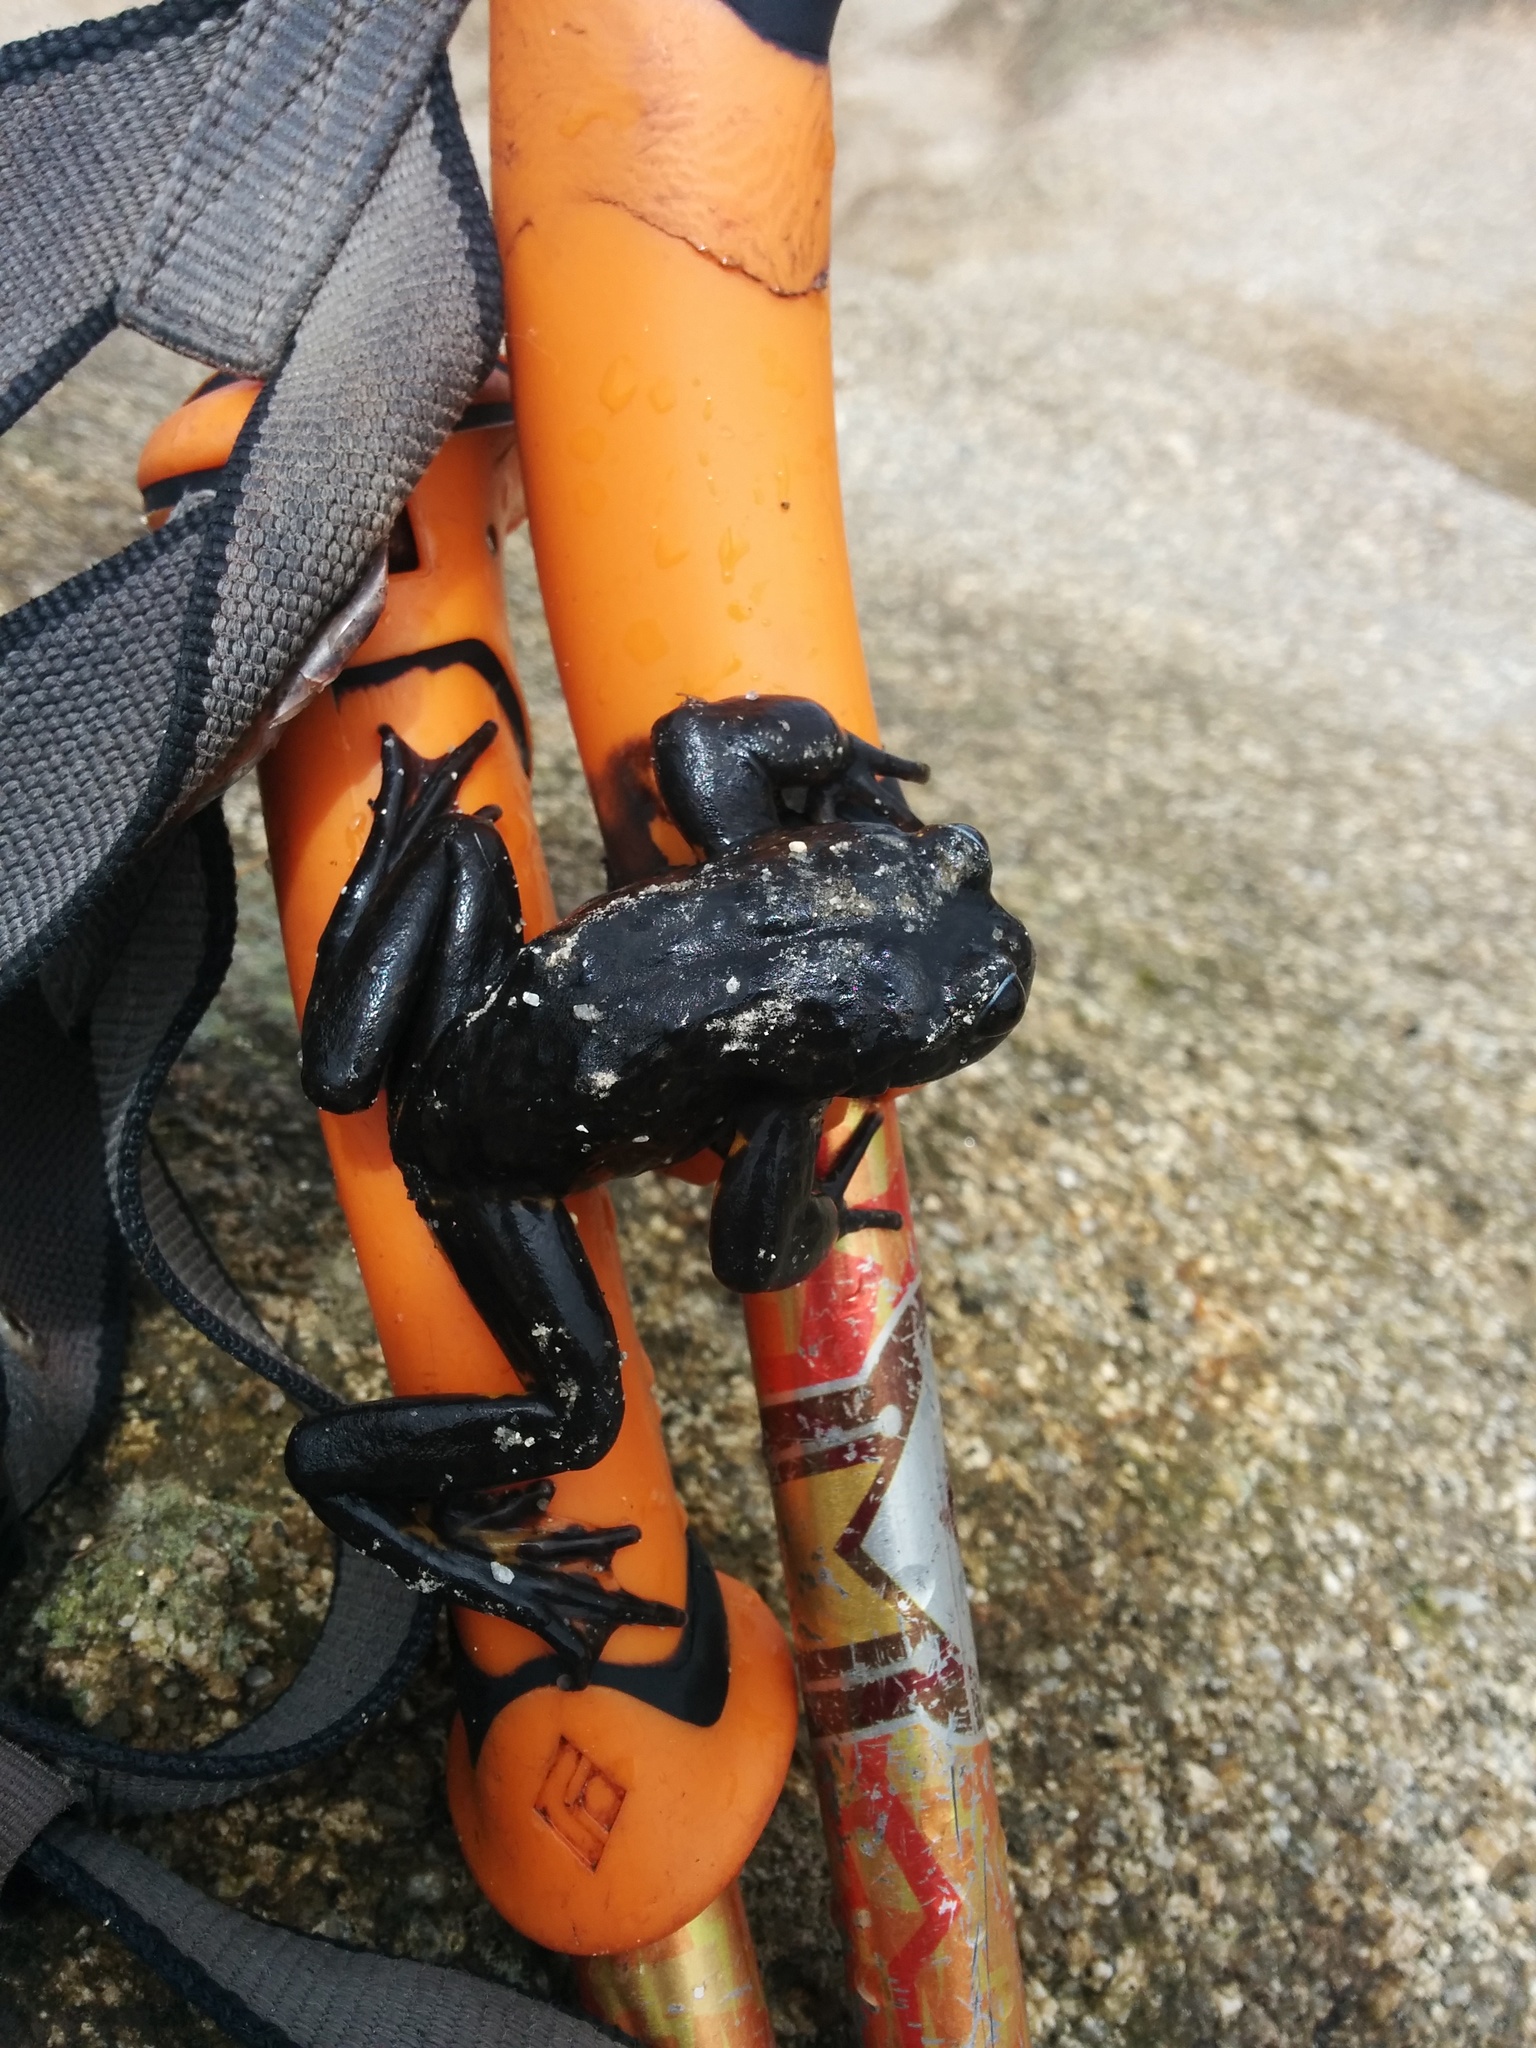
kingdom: Animalia
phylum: Chordata
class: Amphibia
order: Anura
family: Telmatobiidae
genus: Telmatobius
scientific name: Telmatobius mantaro
